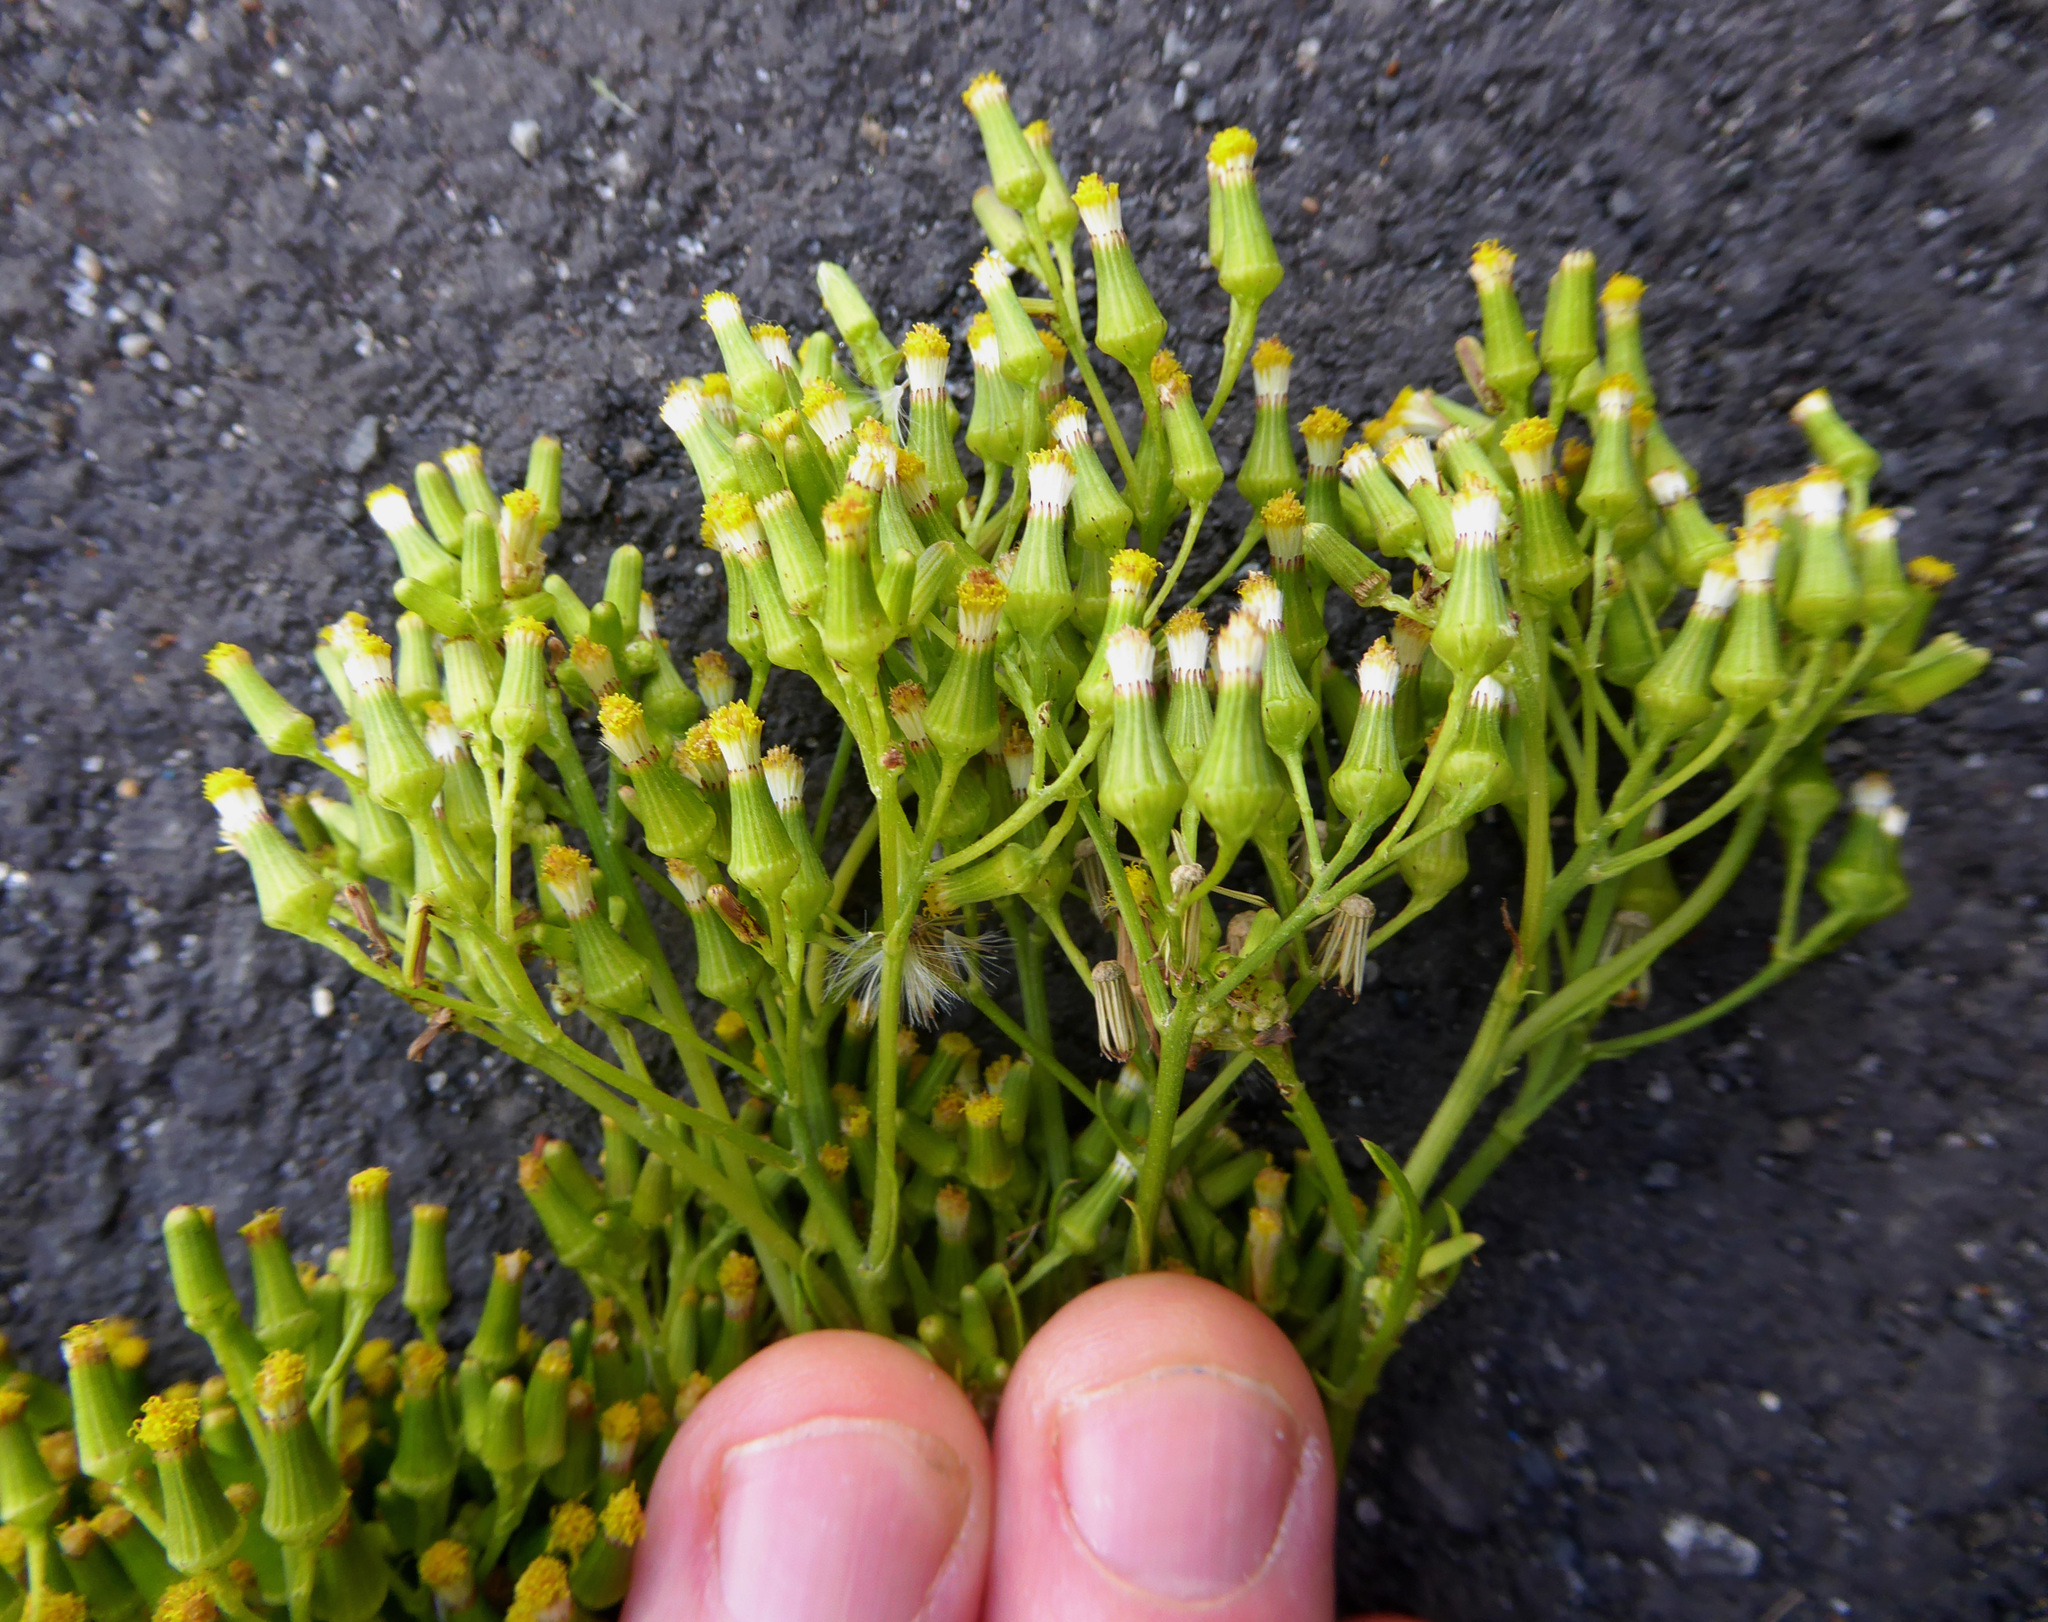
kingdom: Plantae
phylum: Tracheophyta
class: Magnoliopsida
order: Asterales
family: Asteraceae
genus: Senecio
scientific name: Senecio esleri
